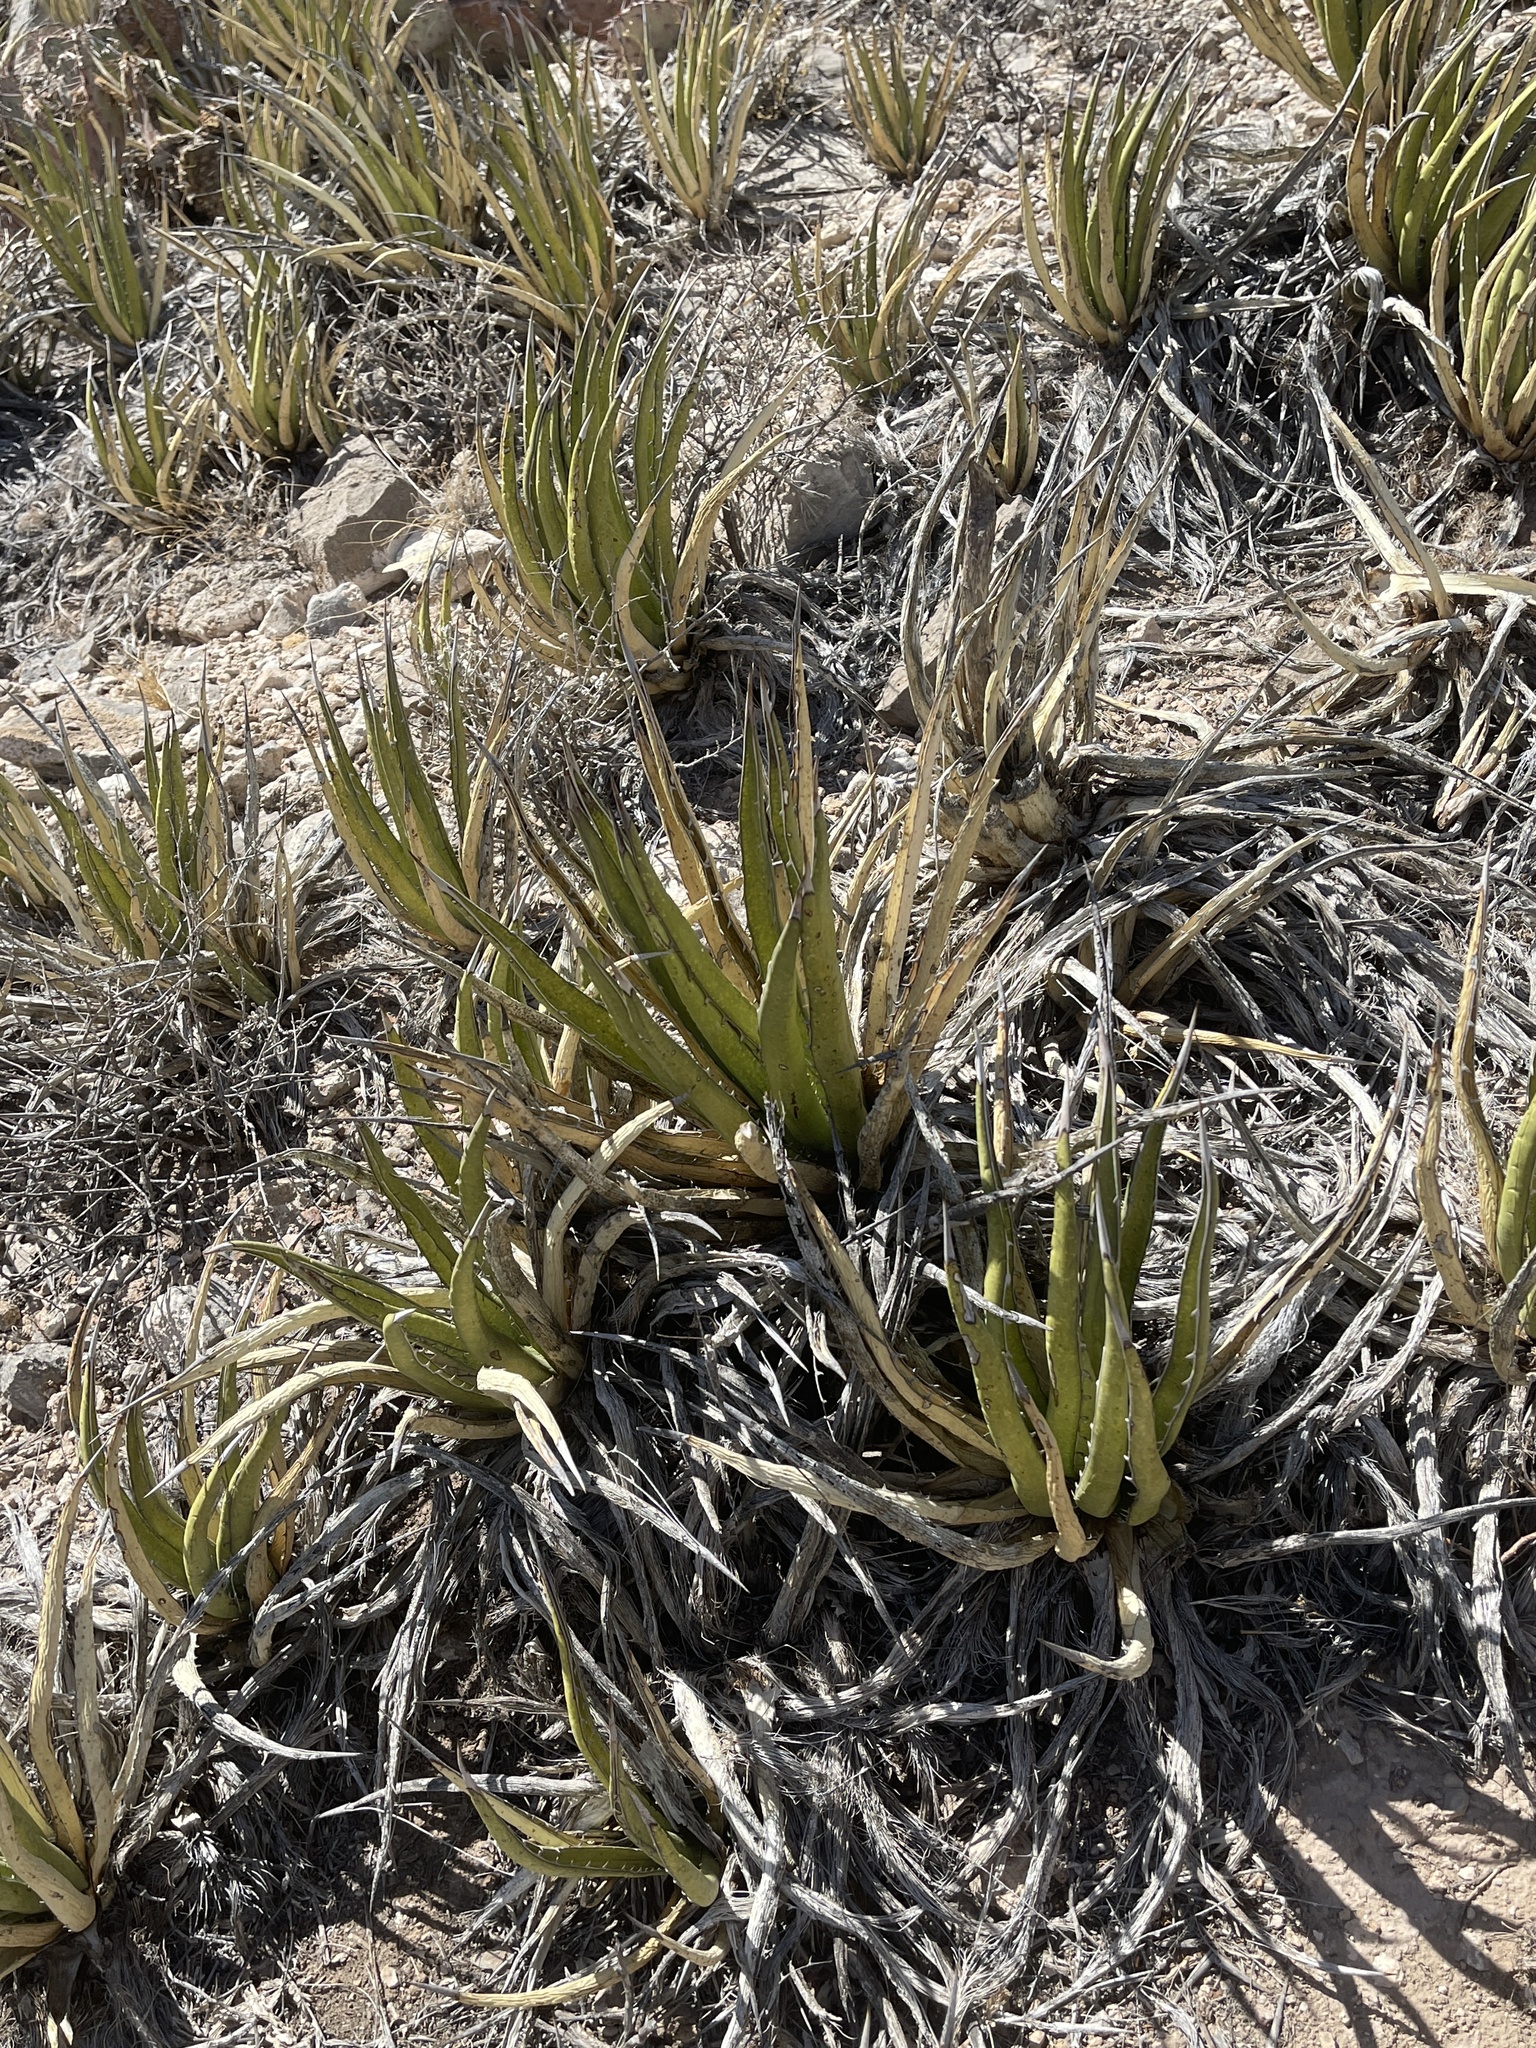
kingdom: Plantae
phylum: Tracheophyta
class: Liliopsida
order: Asparagales
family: Asparagaceae
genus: Agave
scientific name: Agave lechuguilla
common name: Lecheguilla agave
